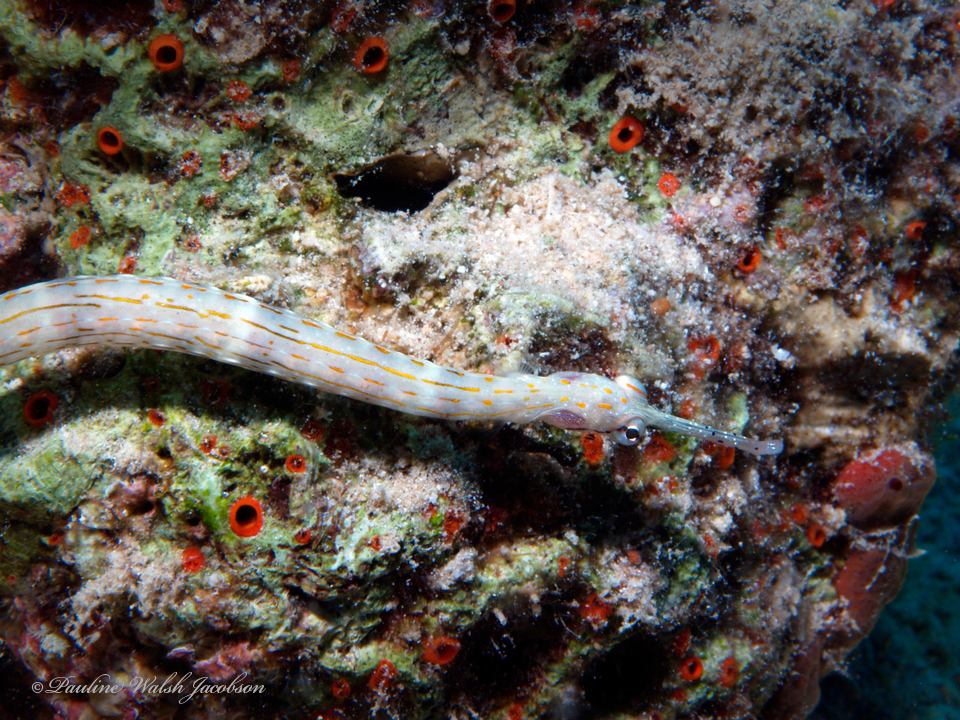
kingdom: Animalia
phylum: Chordata
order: Syngnathiformes
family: Syngnathidae
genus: Corythoichthys
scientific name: Corythoichthys schultzi
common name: Guilded pipefish
